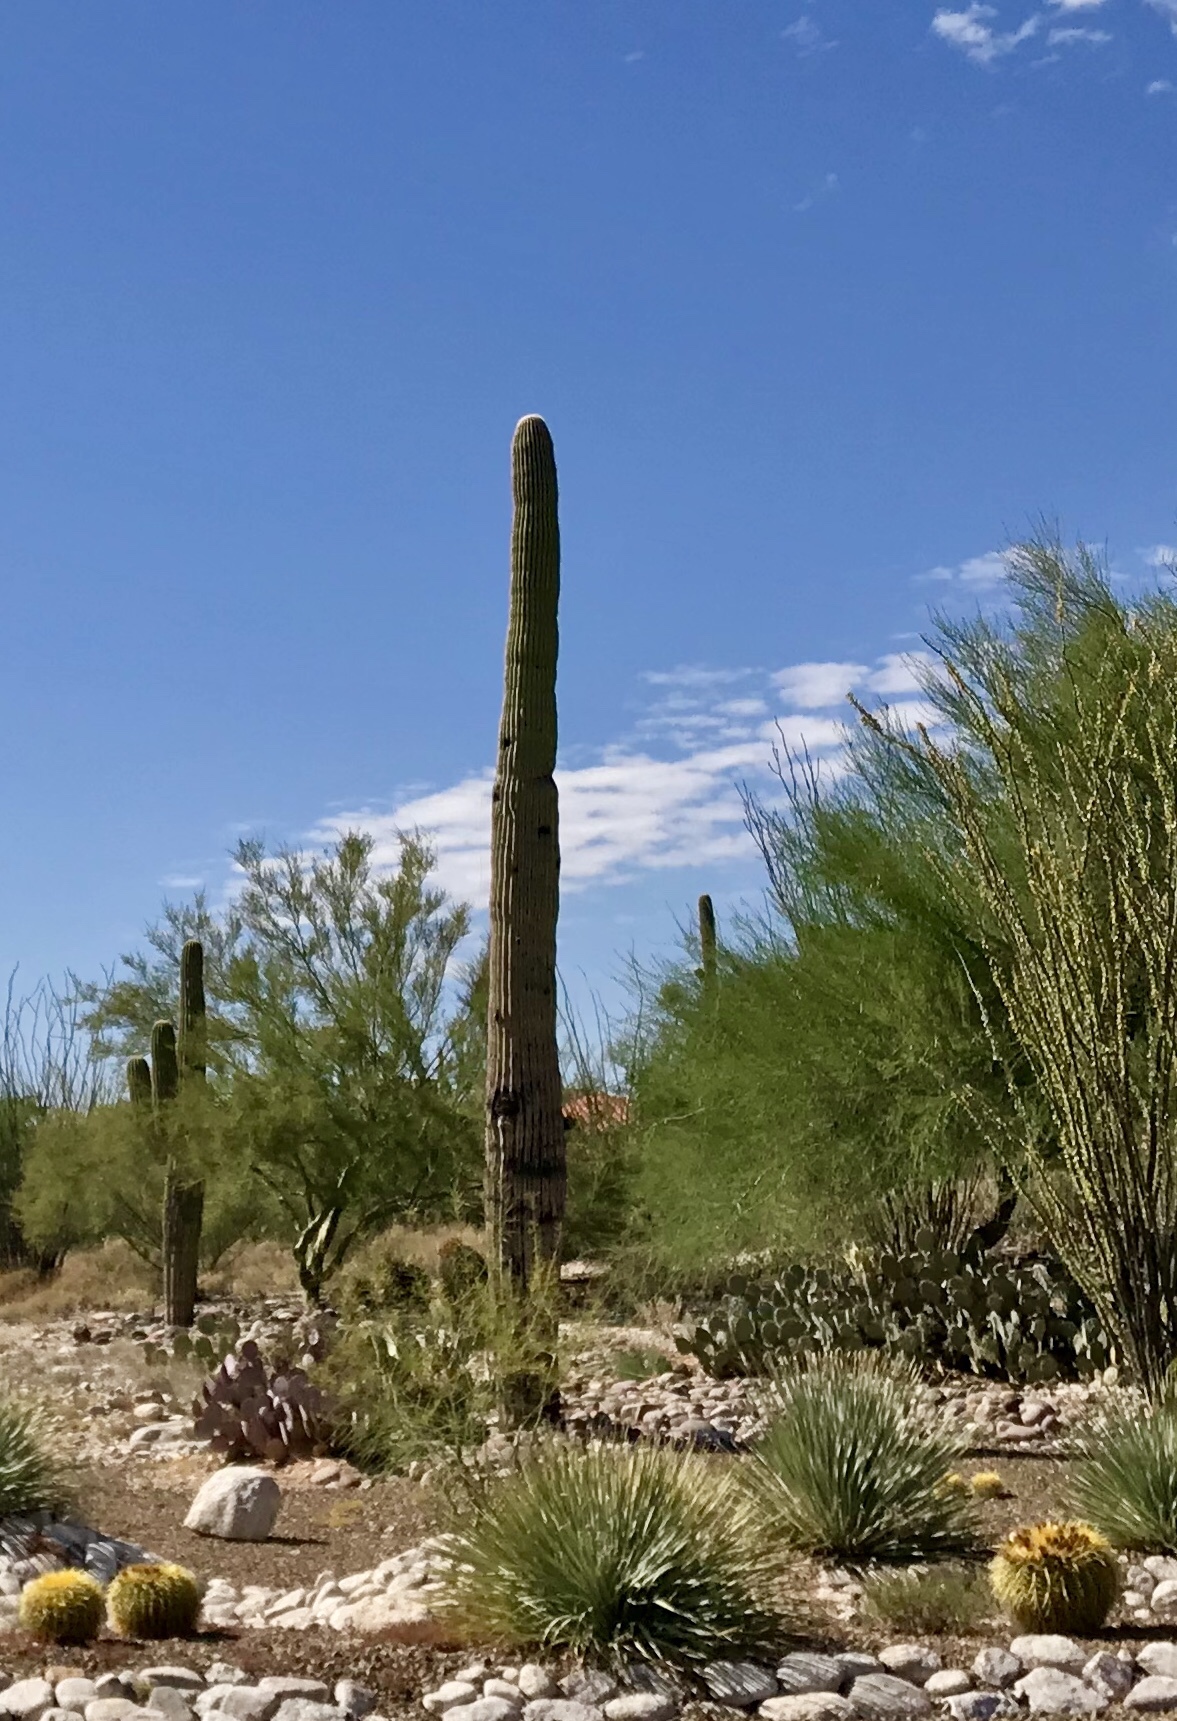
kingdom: Plantae
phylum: Tracheophyta
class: Magnoliopsida
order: Caryophyllales
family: Cactaceae
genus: Carnegiea
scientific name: Carnegiea gigantea
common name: Saguaro
